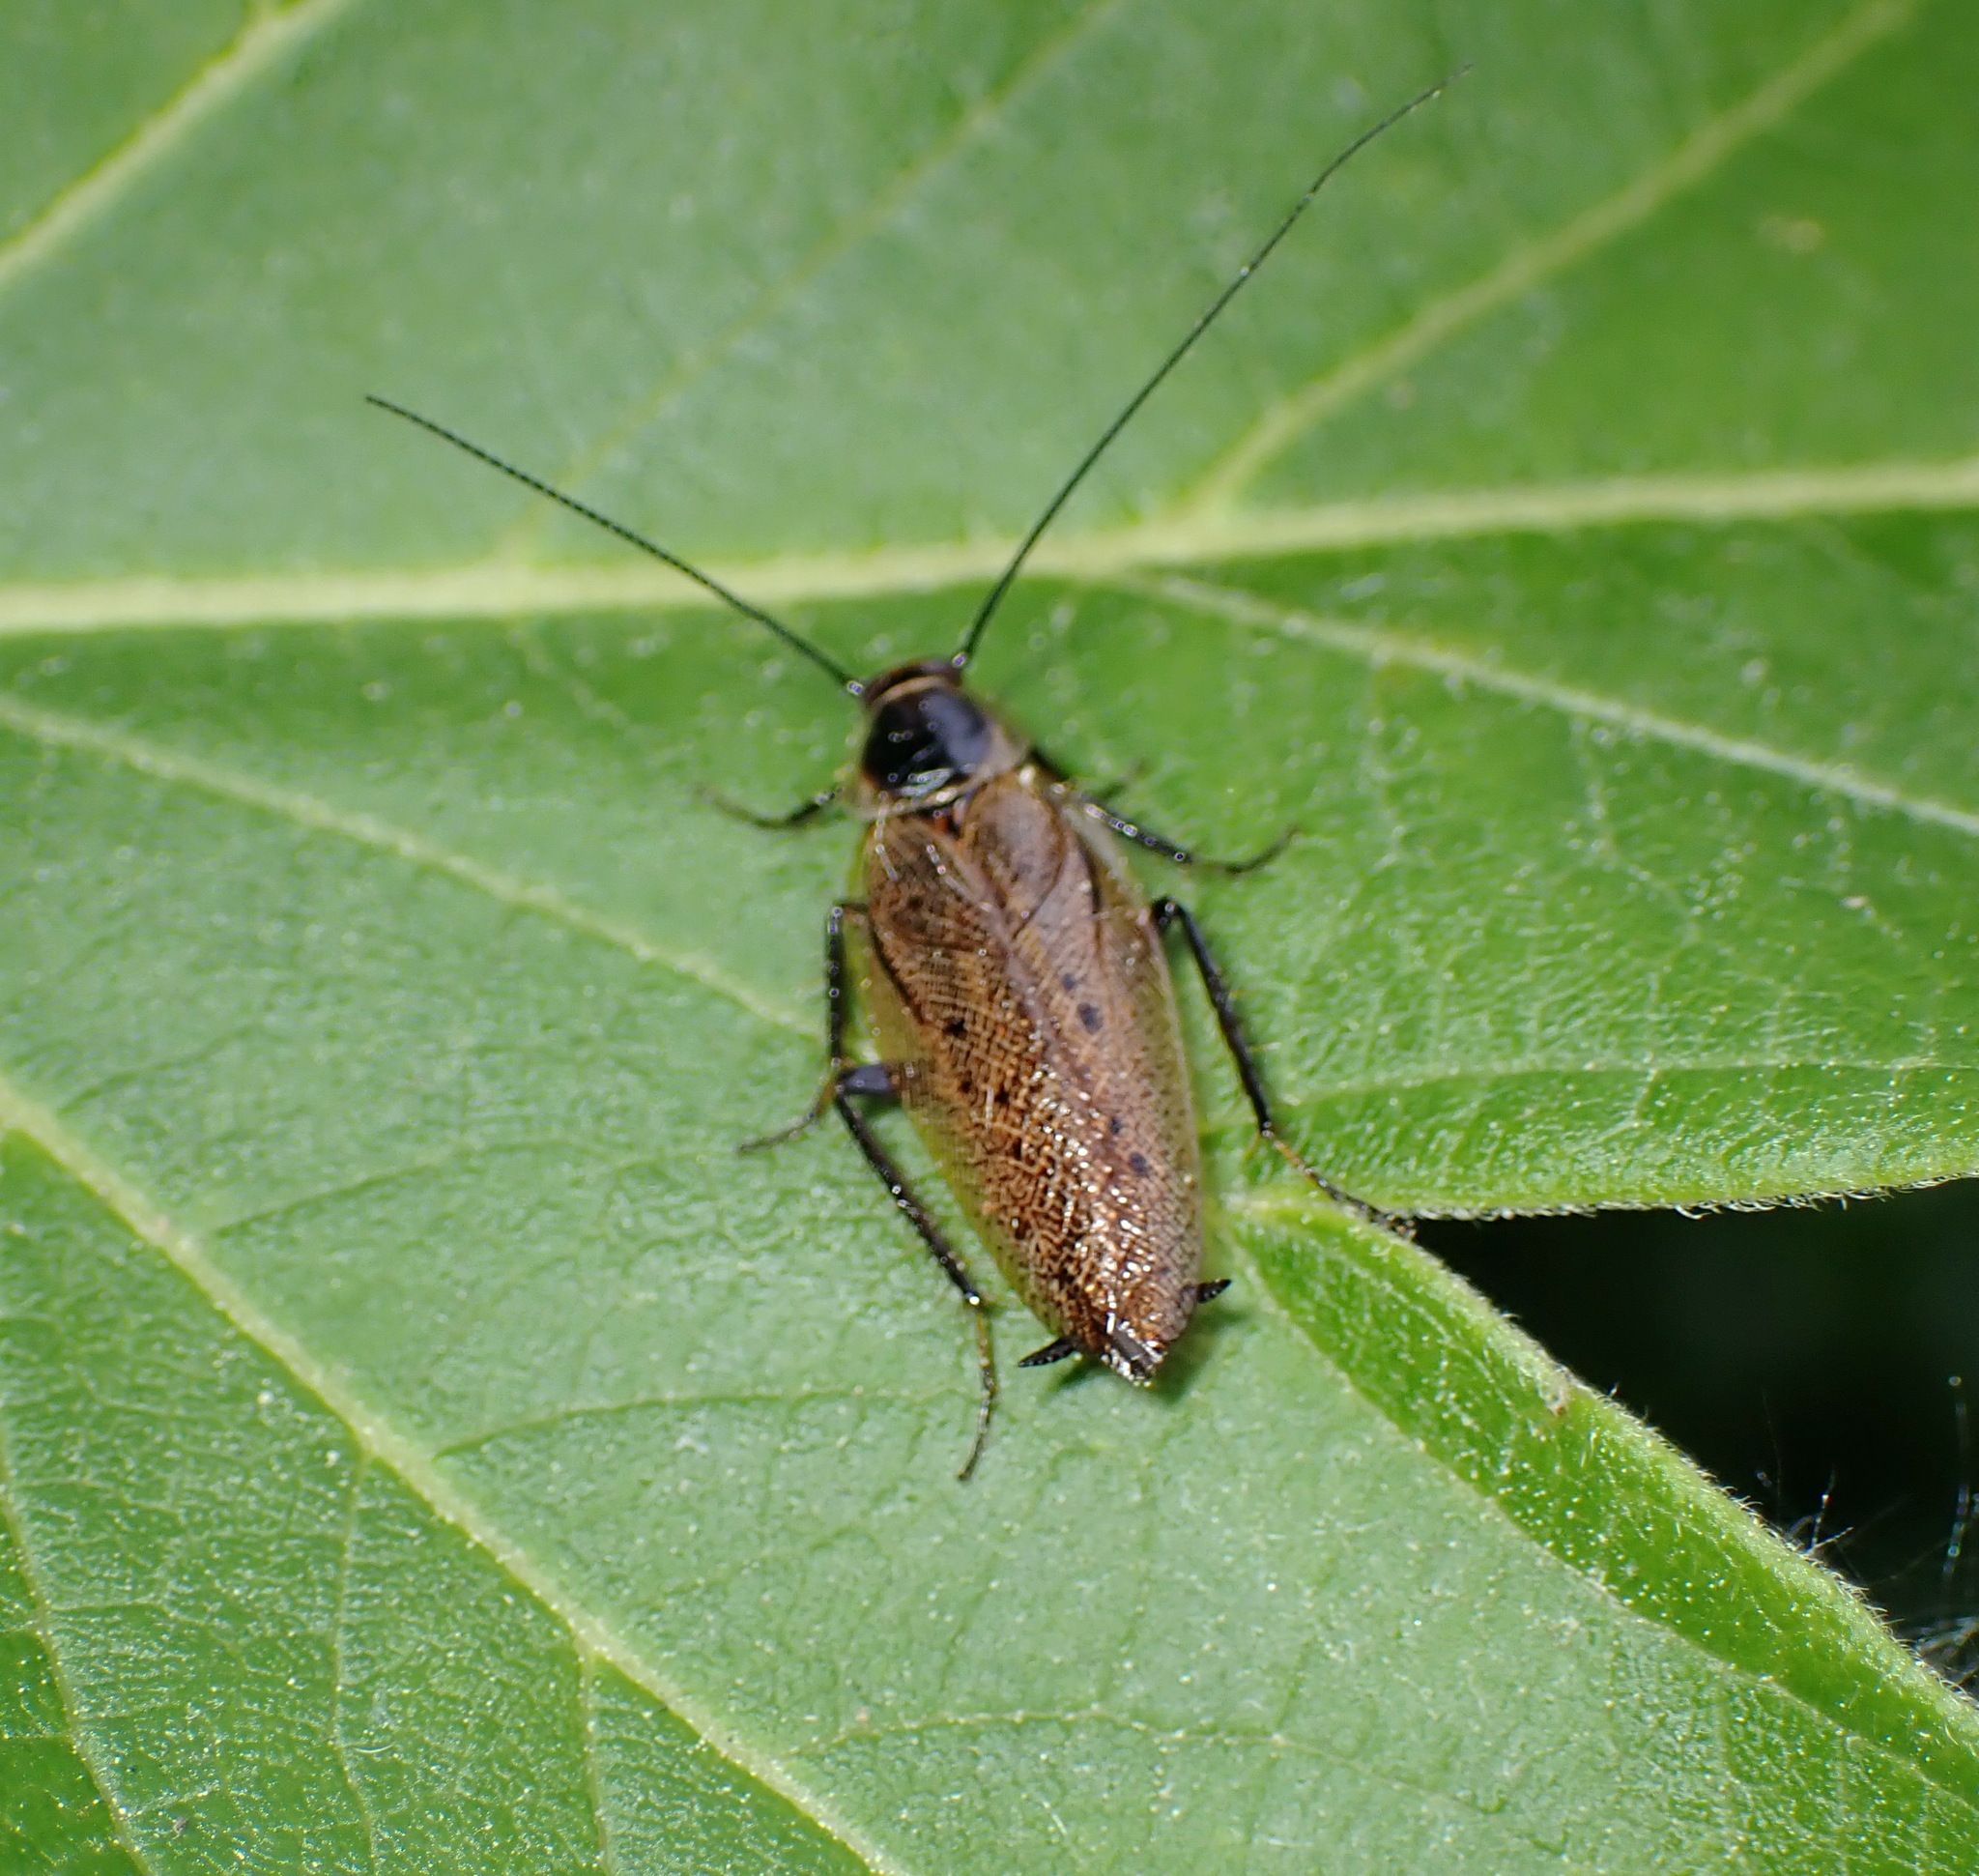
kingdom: Animalia
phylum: Arthropoda
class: Insecta
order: Blattodea
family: Ectobiidae
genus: Ectobius
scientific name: Ectobius lapponicus
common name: Dusky cockroach
